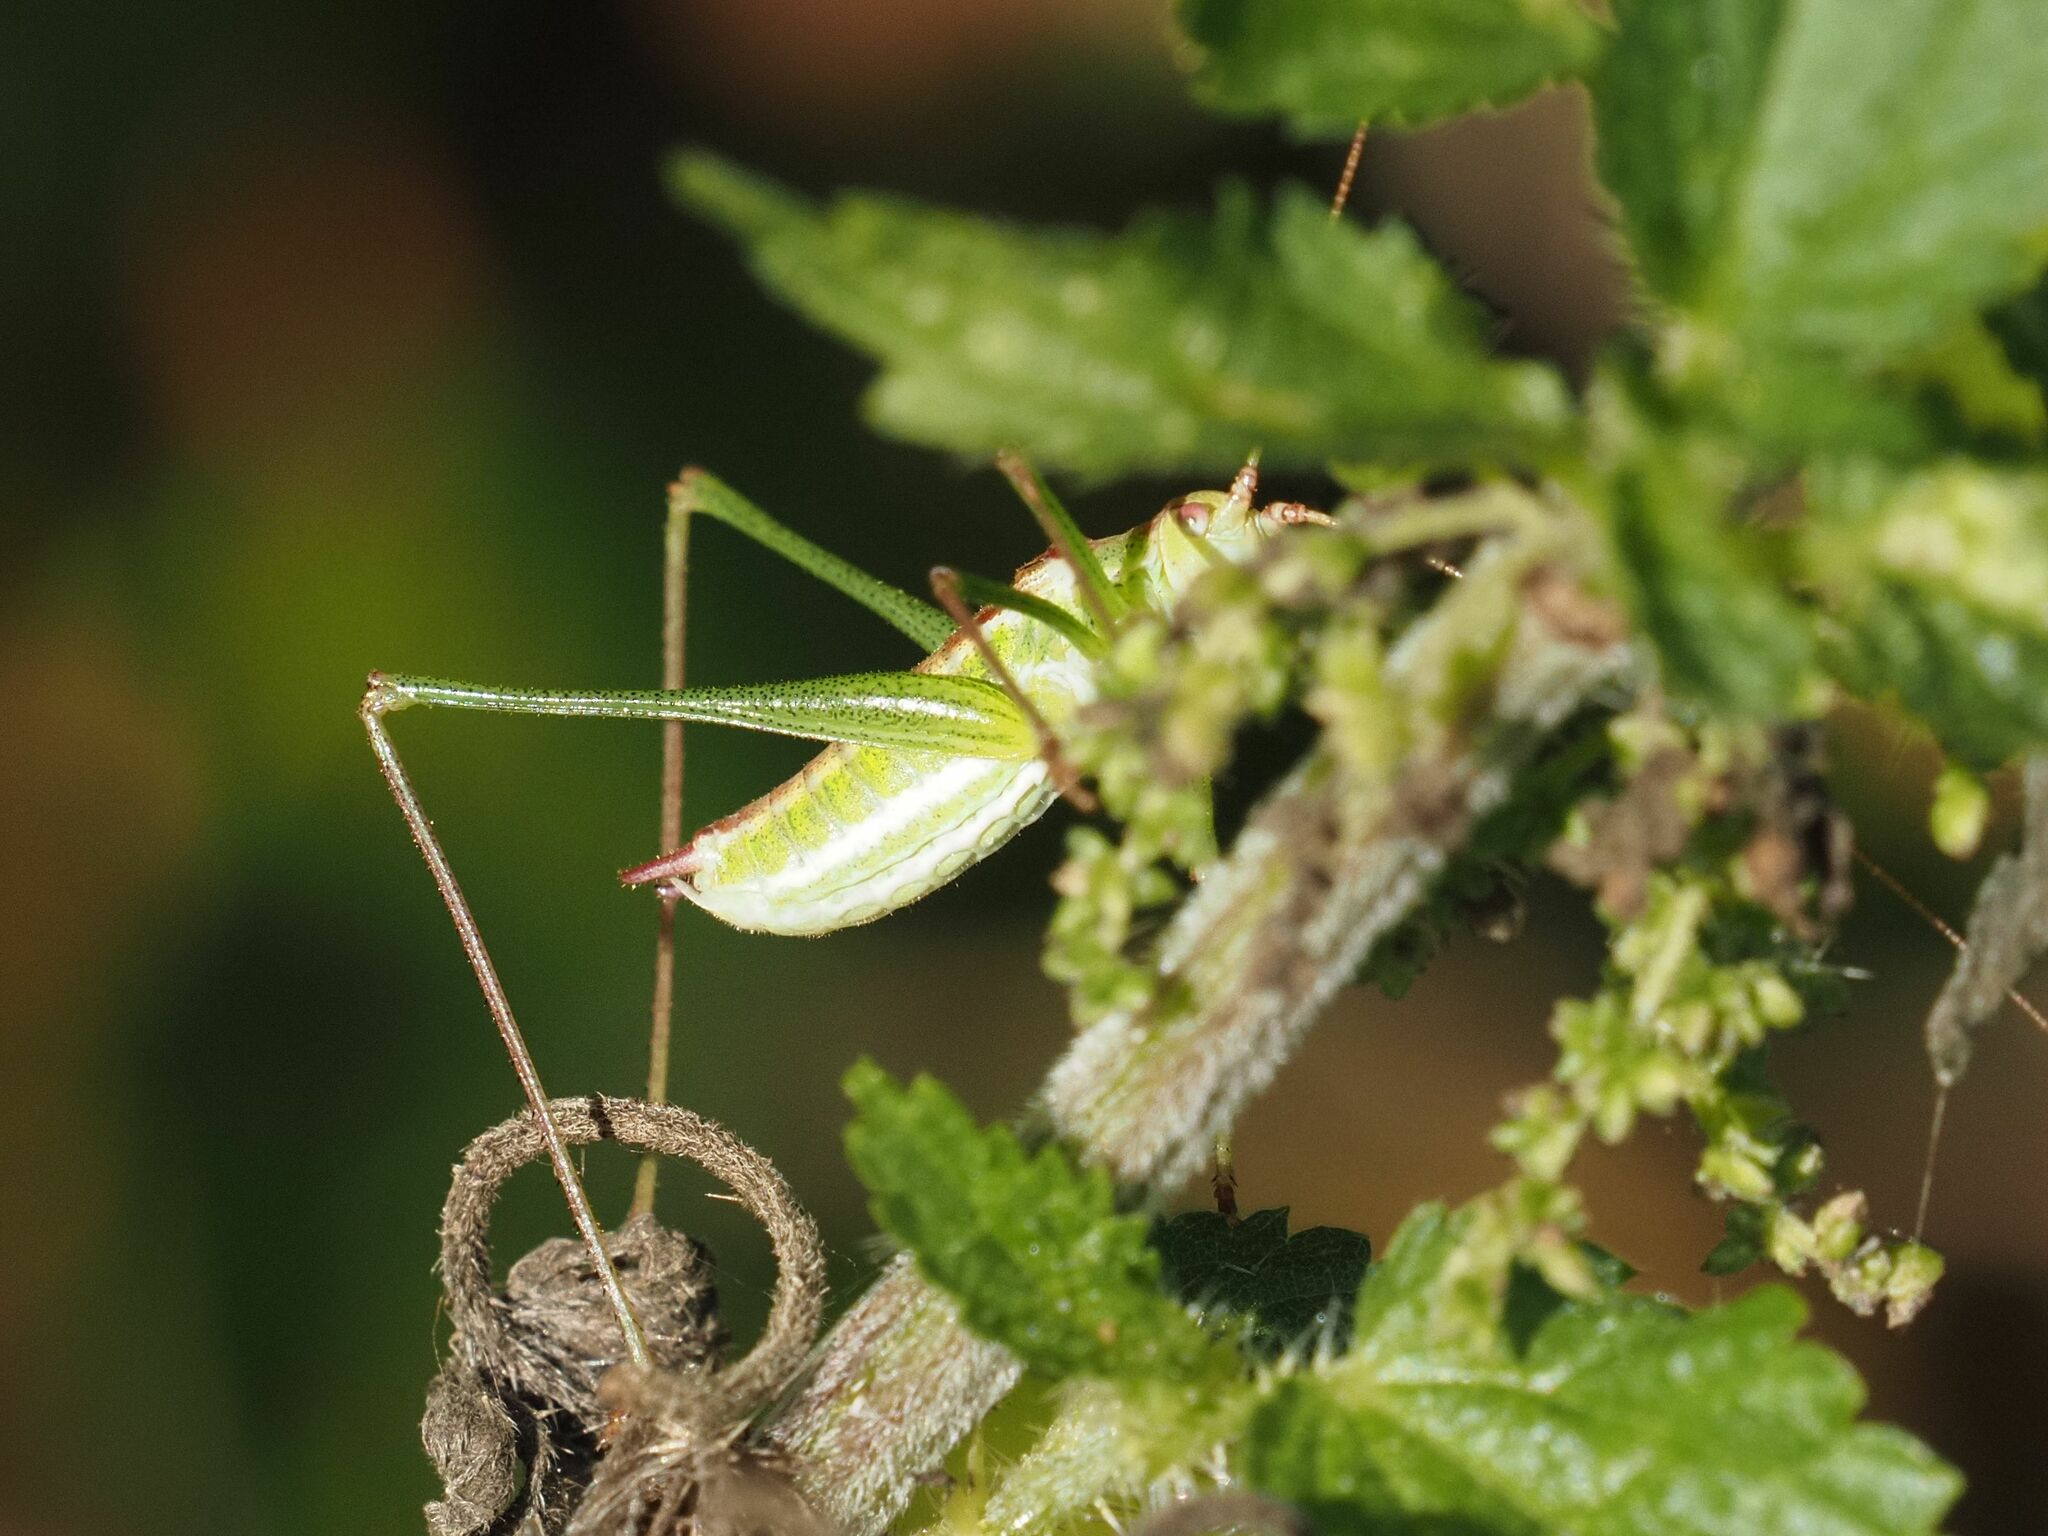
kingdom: Animalia
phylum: Arthropoda
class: Insecta
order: Orthoptera
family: Tettigoniidae
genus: Leptophyes
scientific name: Leptophyes albovittata
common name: Striped bush-cricket
